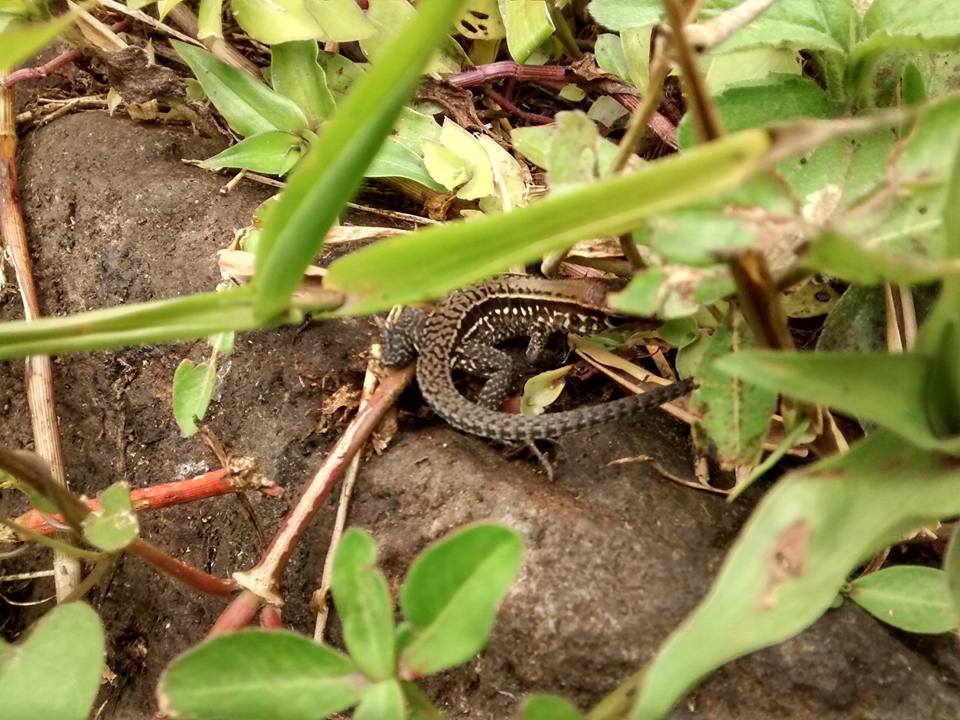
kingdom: Animalia
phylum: Chordata
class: Squamata
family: Teiidae
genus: Holcosus
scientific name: Holcosus amphigrammus
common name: Rainbow ameiva
